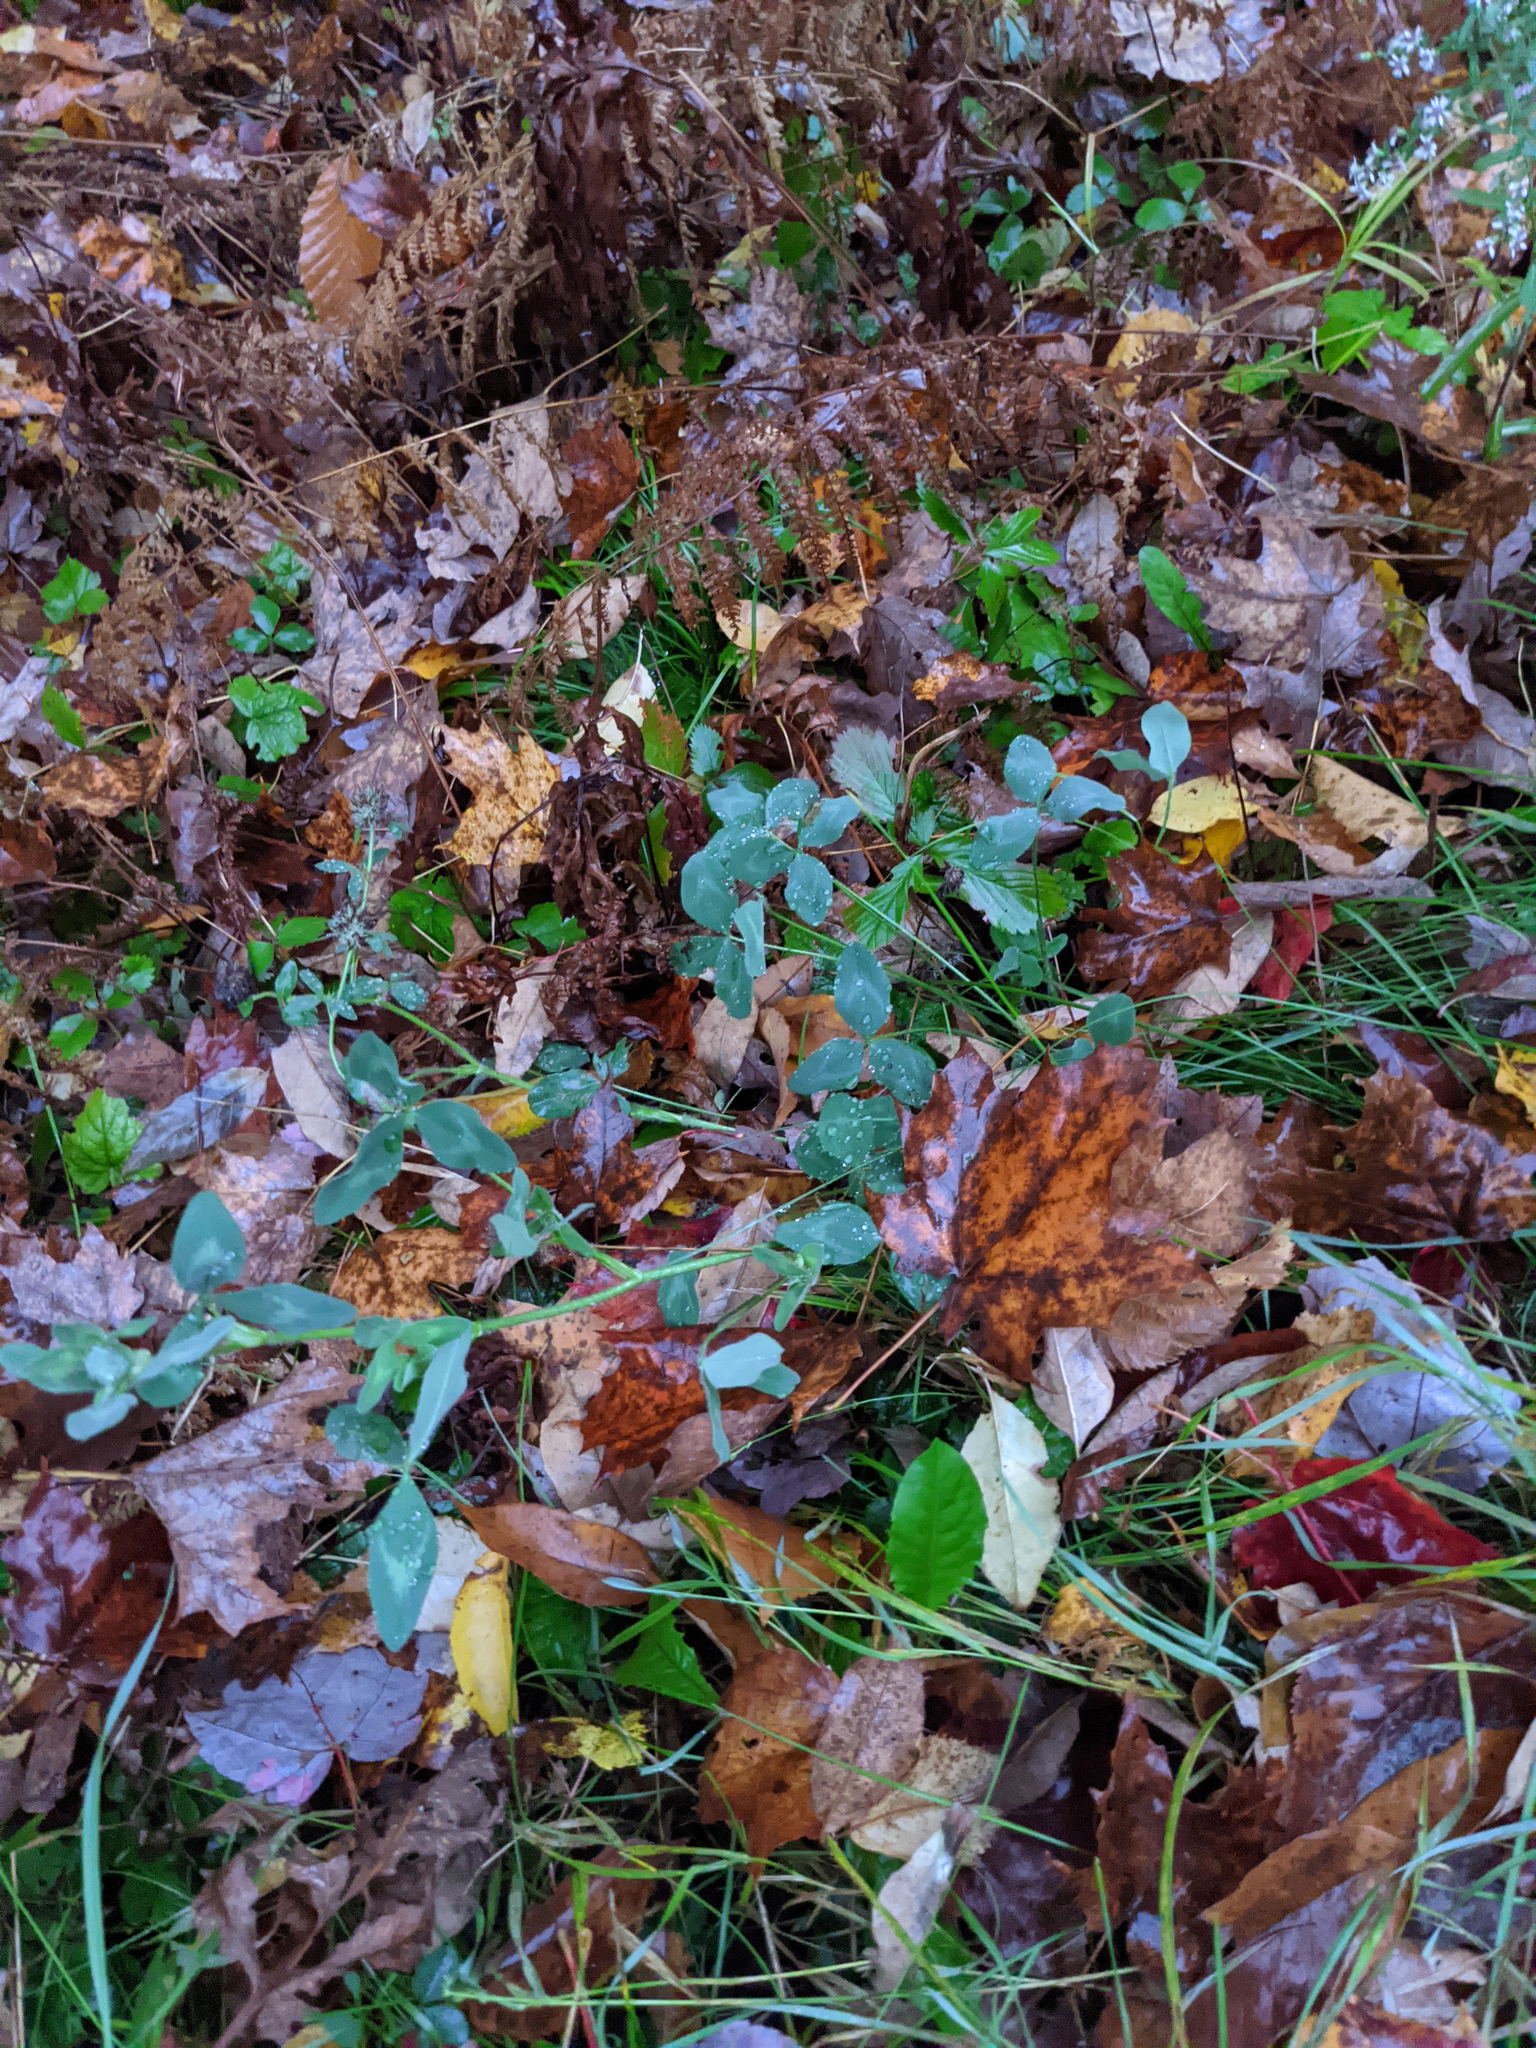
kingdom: Plantae
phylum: Tracheophyta
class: Magnoliopsida
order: Fabales
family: Fabaceae
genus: Trifolium
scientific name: Trifolium pratense
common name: Red clover
